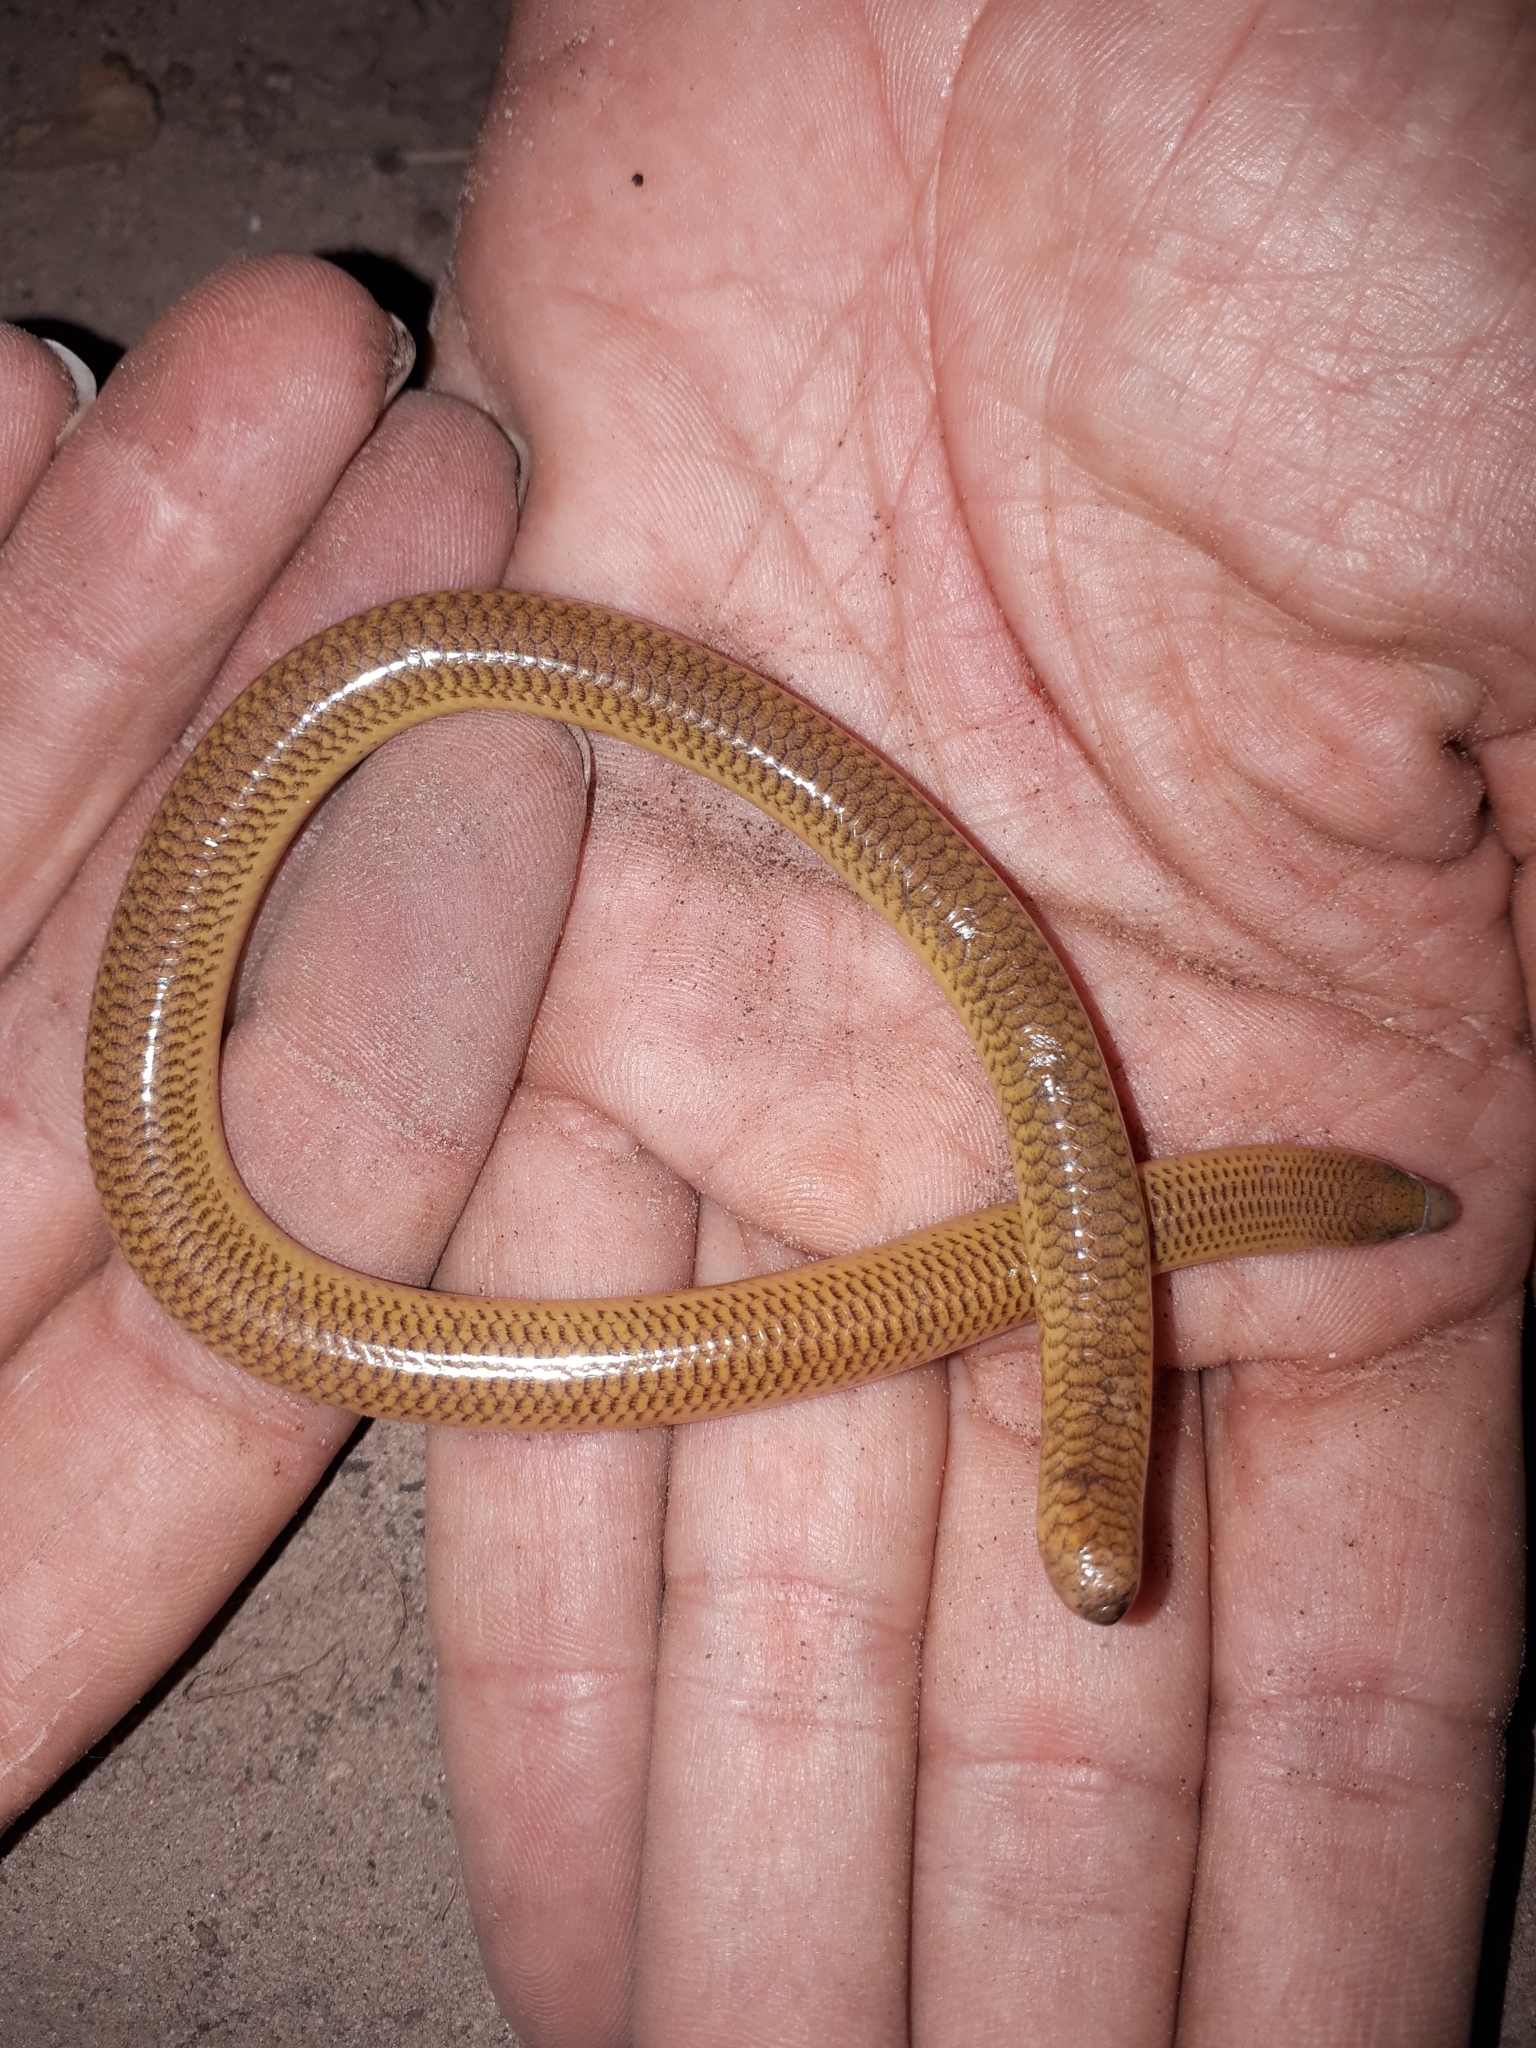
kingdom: Animalia
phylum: Chordata
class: Squamata
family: Scincidae
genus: Acontias
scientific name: Acontias meleagris
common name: Cape legless skink
